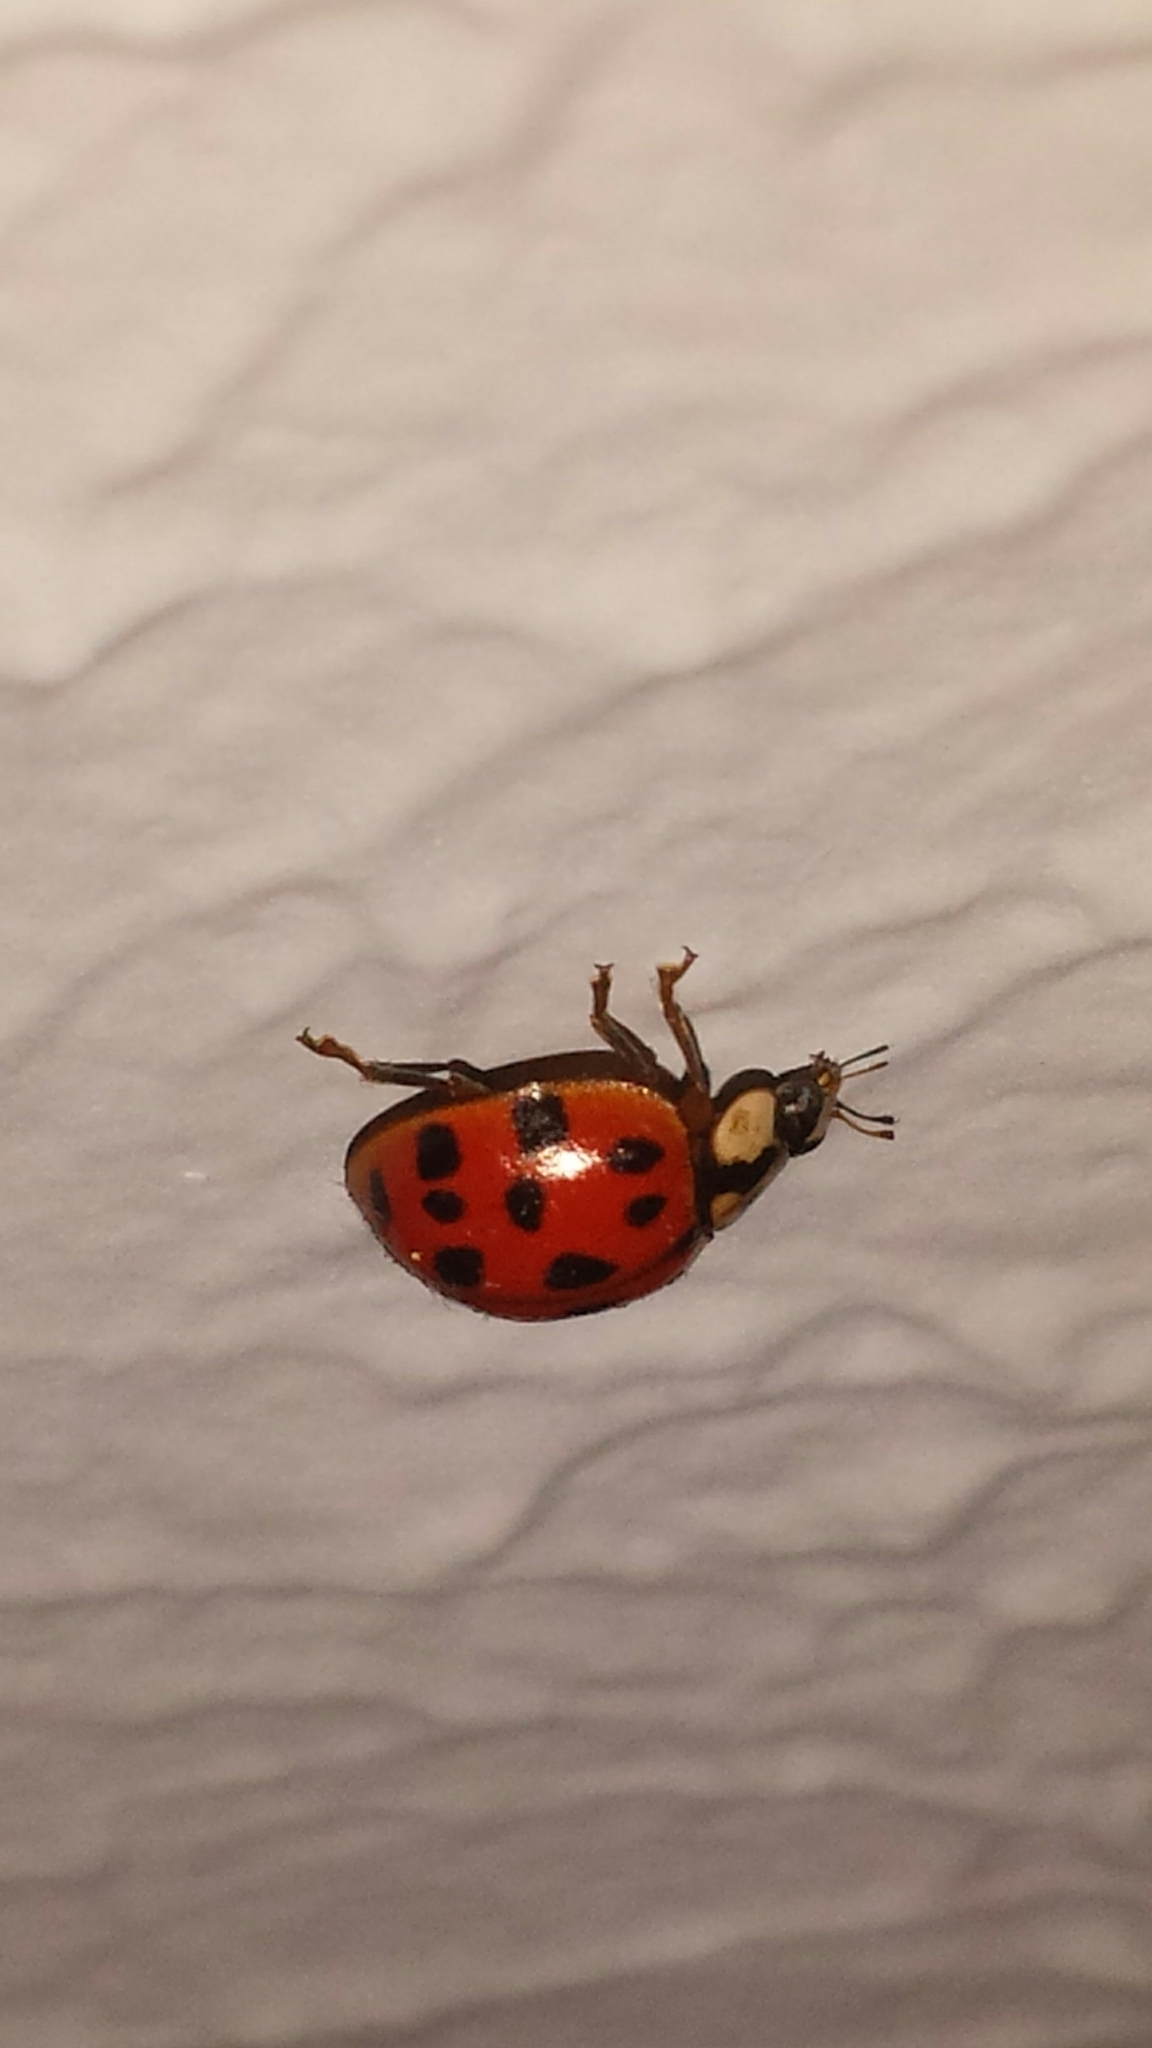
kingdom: Animalia
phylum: Arthropoda
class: Insecta
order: Coleoptera
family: Coccinellidae
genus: Harmonia
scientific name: Harmonia axyridis
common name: Harlequin ladybird
